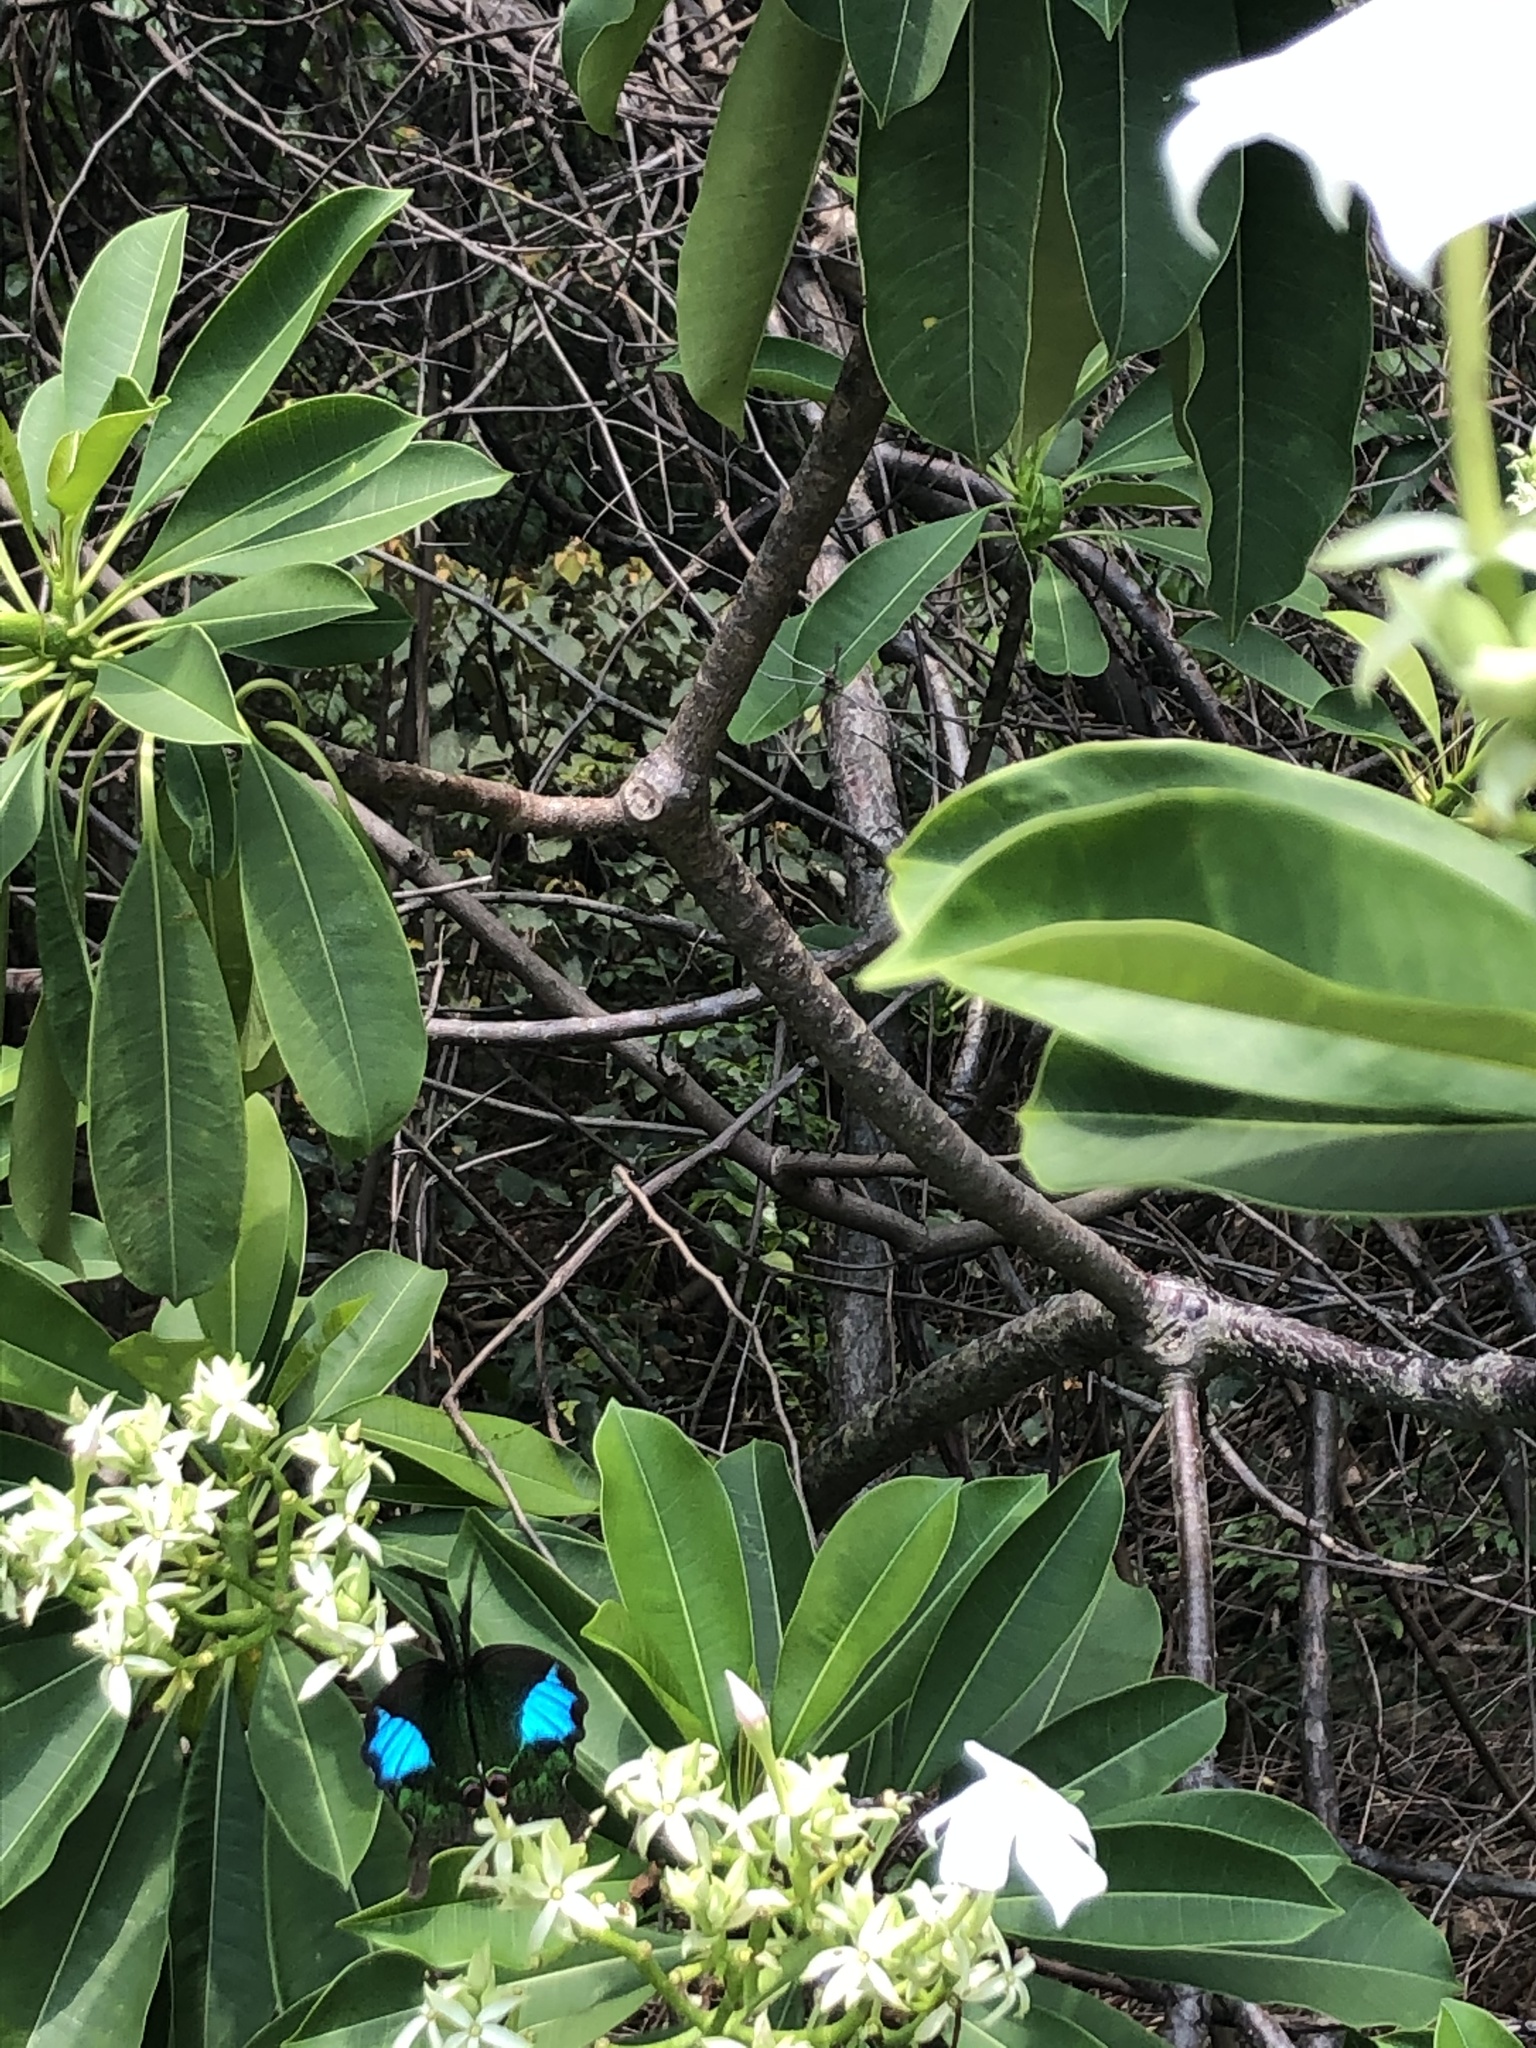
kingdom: Animalia
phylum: Arthropoda
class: Insecta
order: Lepidoptera
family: Papilionidae
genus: Papilio
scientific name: Papilio paris
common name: Paris peacock
